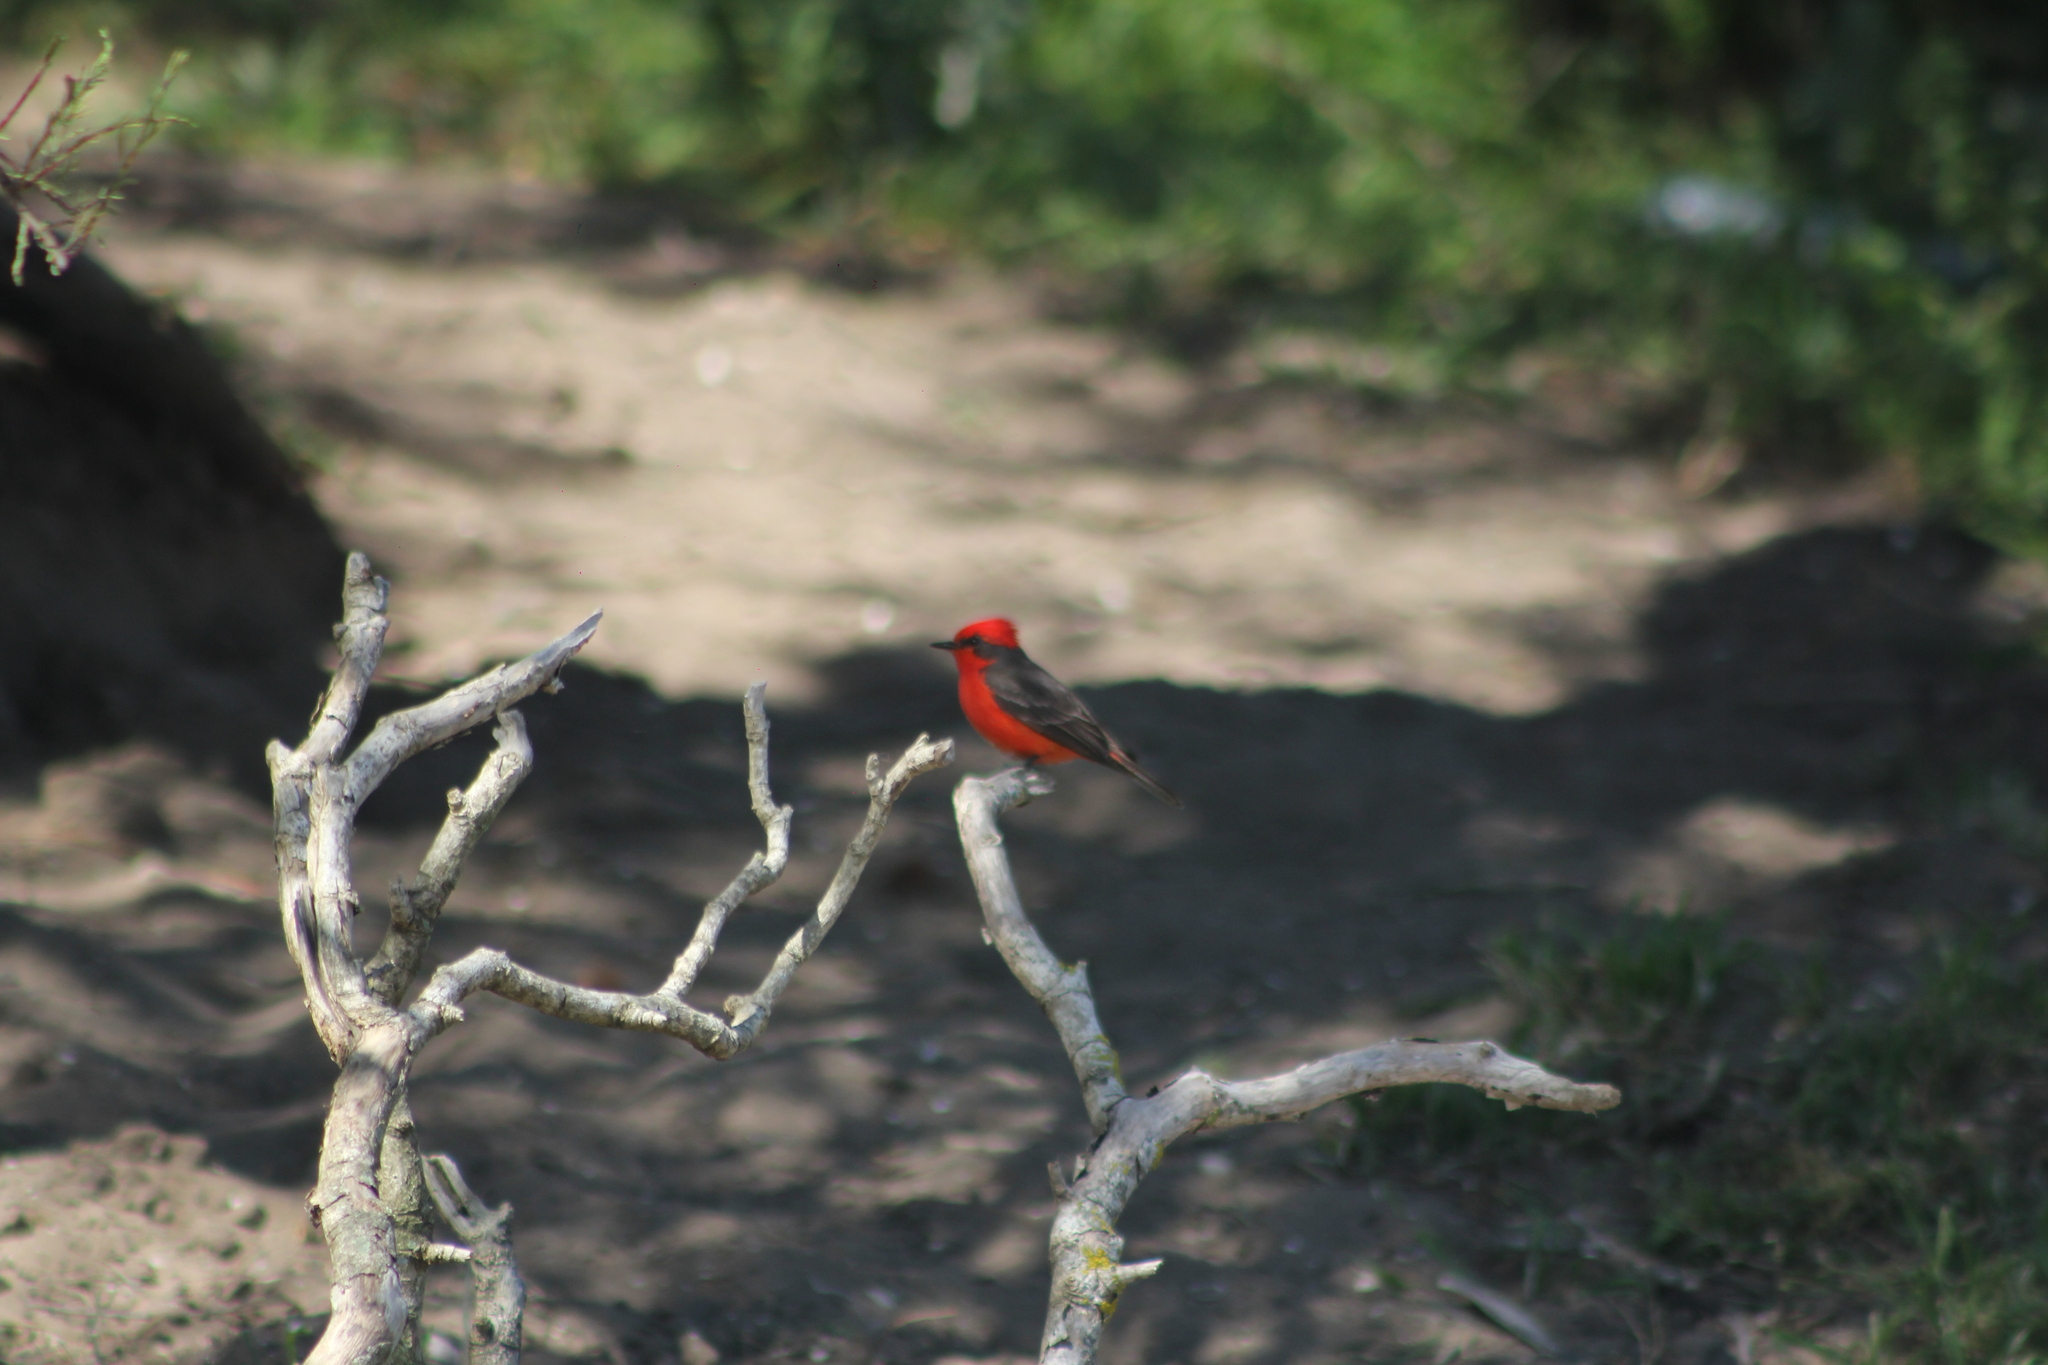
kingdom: Animalia
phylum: Chordata
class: Aves
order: Passeriformes
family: Tyrannidae
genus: Pyrocephalus
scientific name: Pyrocephalus rubinus
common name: Vermilion flycatcher
